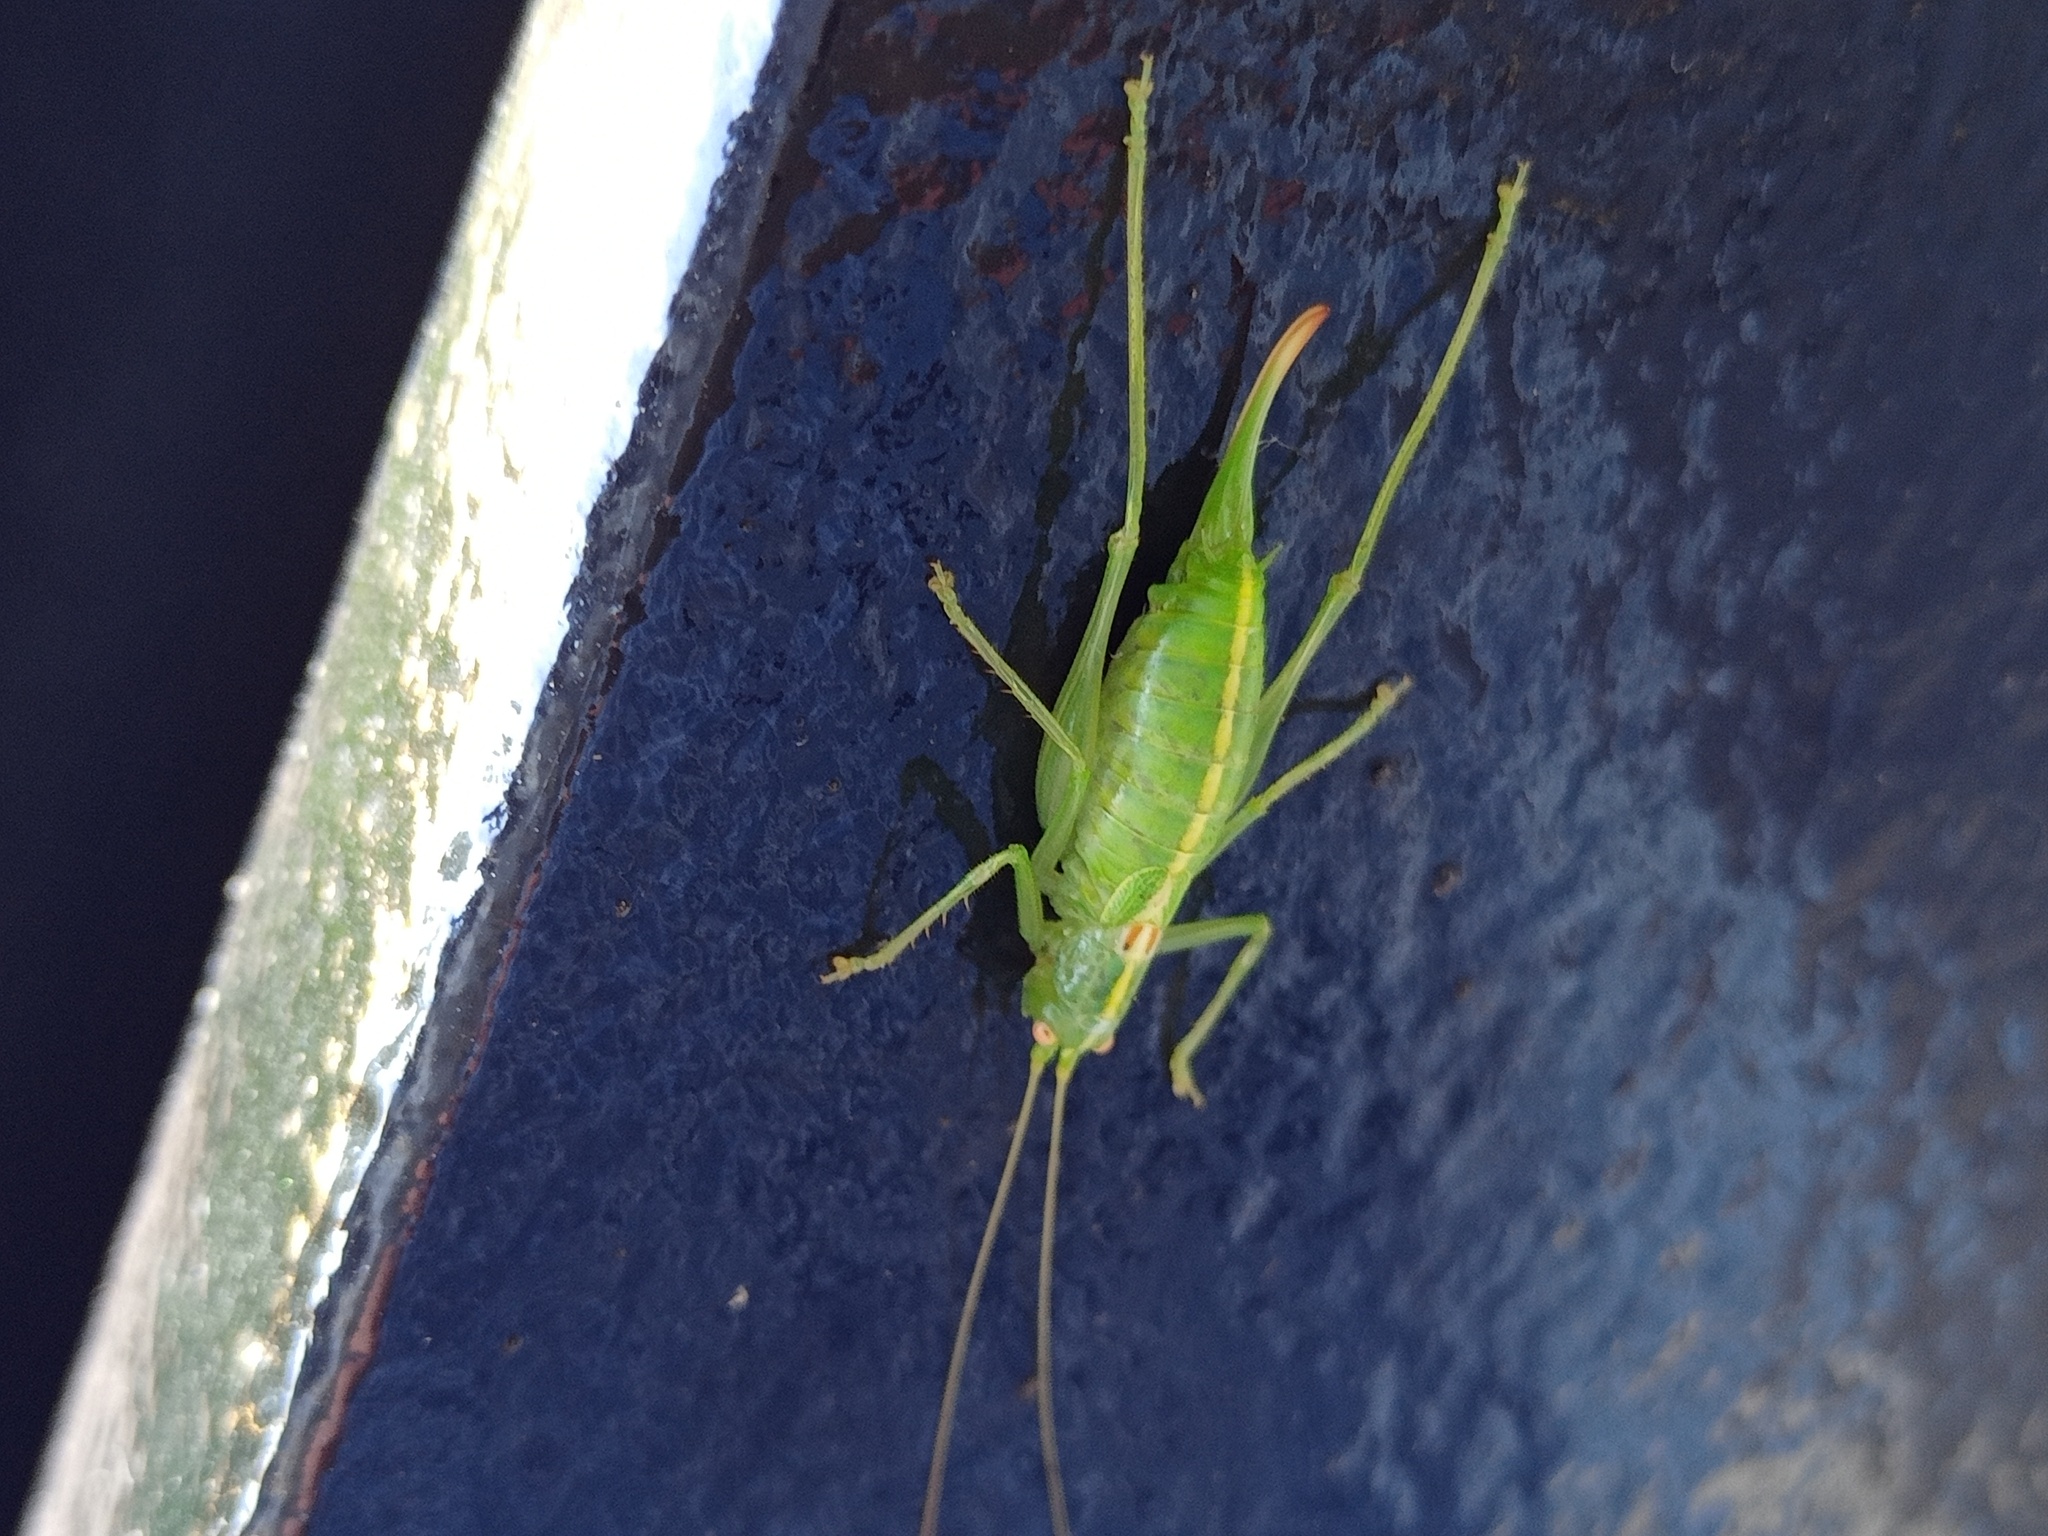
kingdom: Animalia
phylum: Arthropoda
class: Insecta
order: Orthoptera
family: Tettigoniidae
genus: Meconema
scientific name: Meconema meridionale
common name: Southern oak bush-cricket
